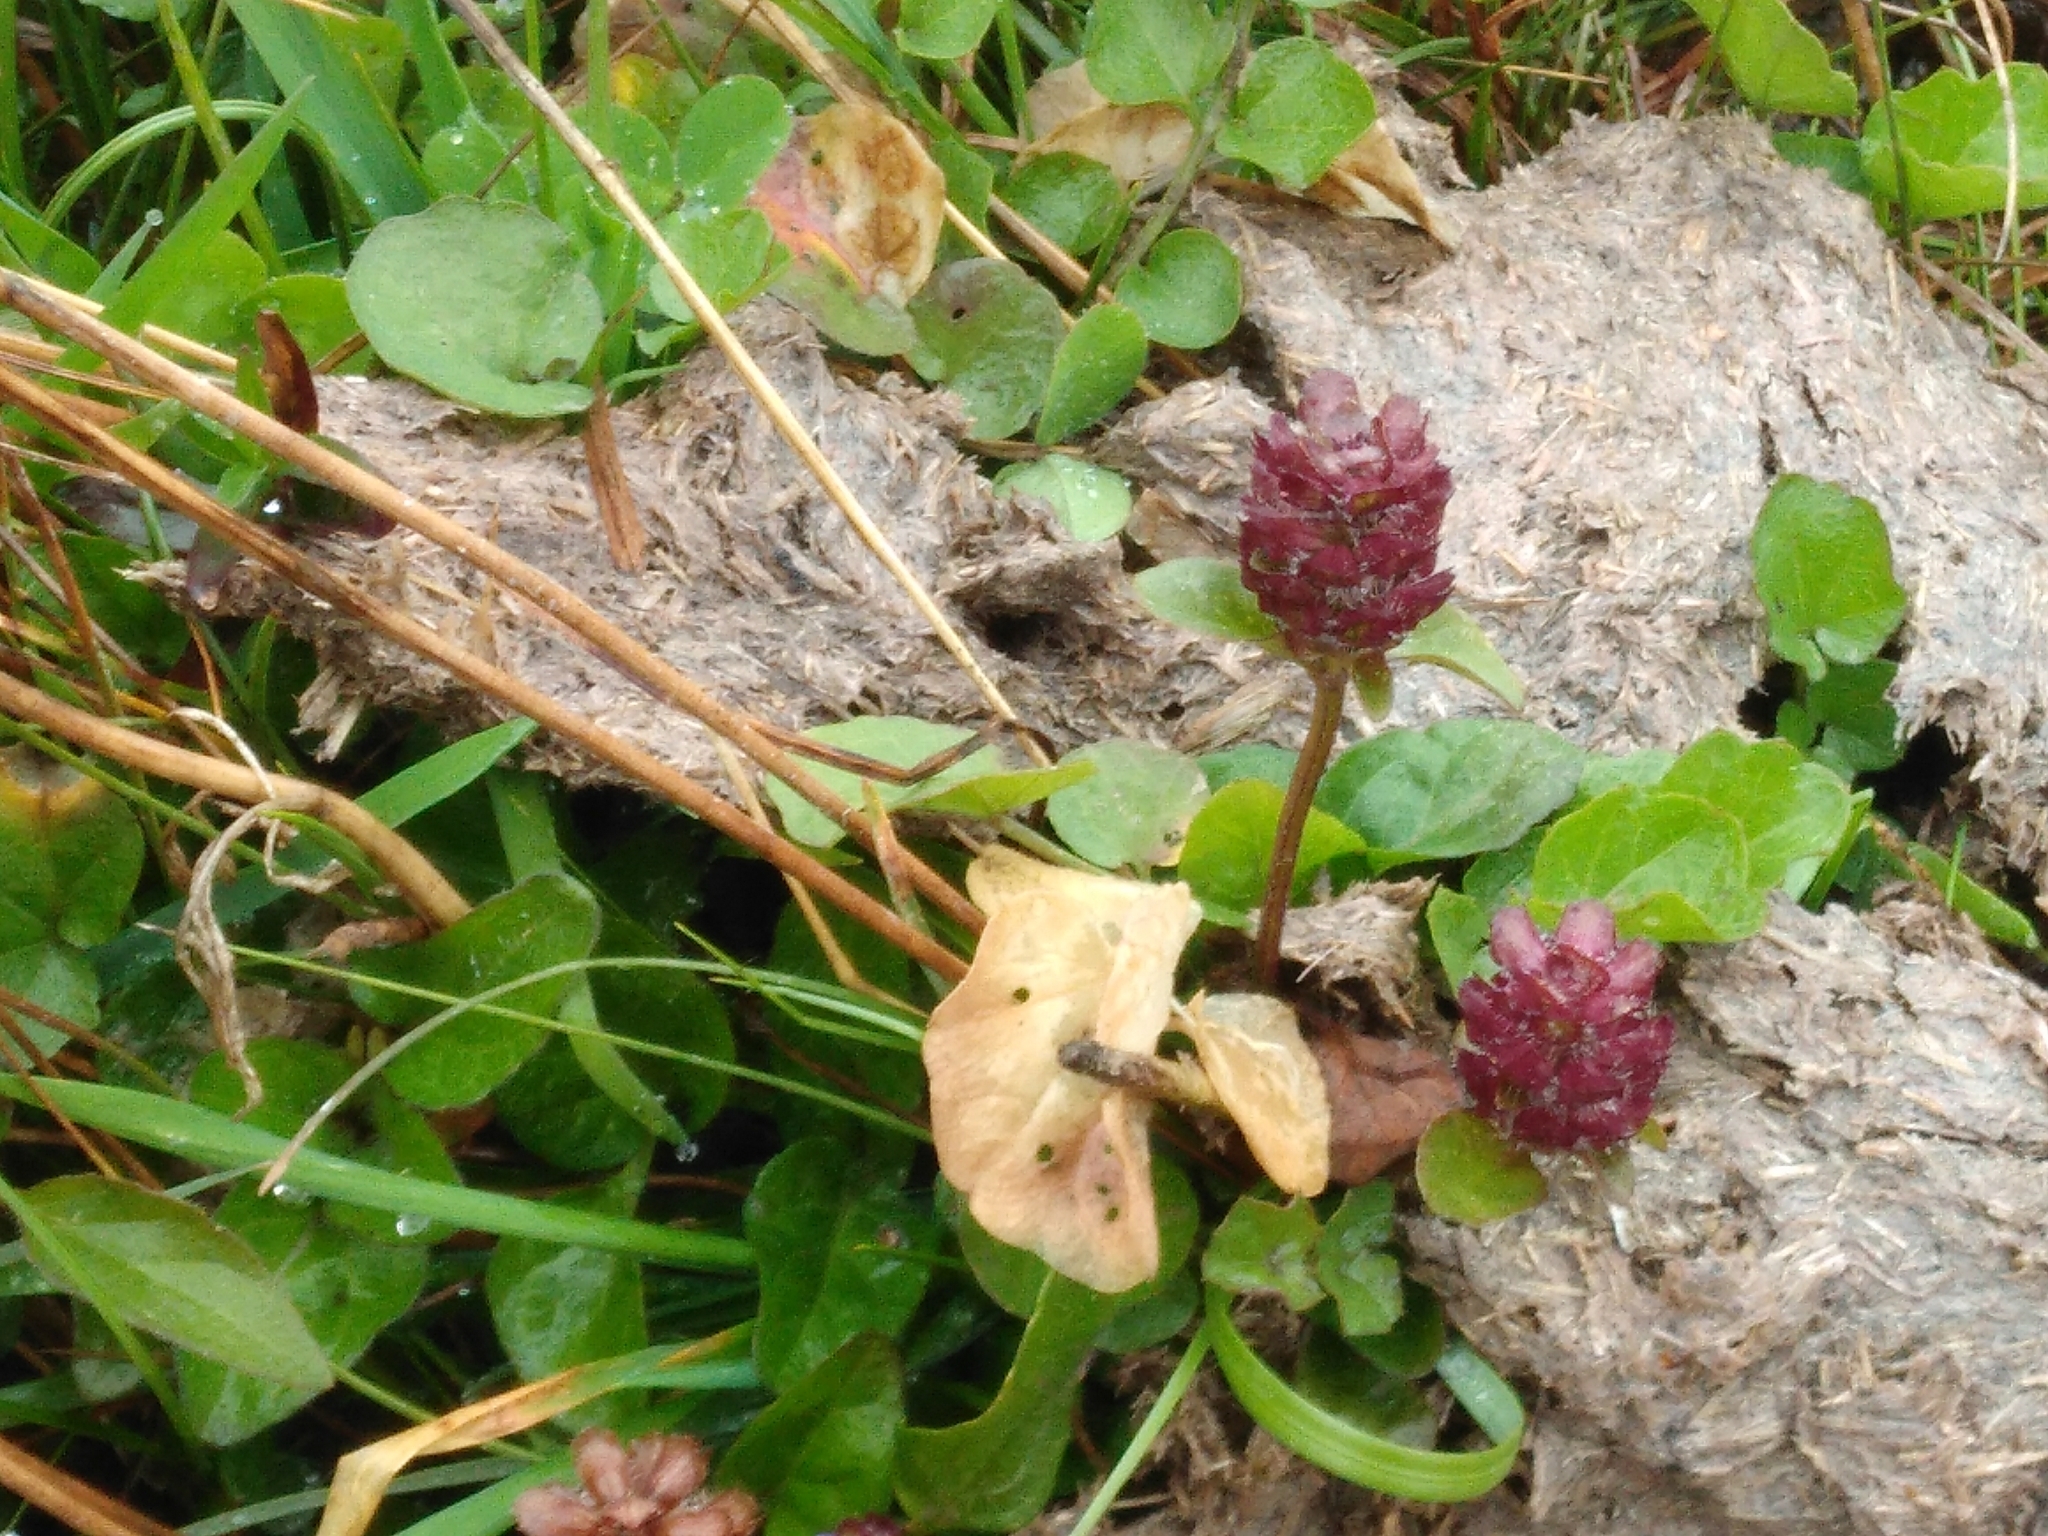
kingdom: Plantae
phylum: Tracheophyta
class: Magnoliopsida
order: Lamiales
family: Lamiaceae
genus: Prunella
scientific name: Prunella vulgaris
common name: Heal-all
